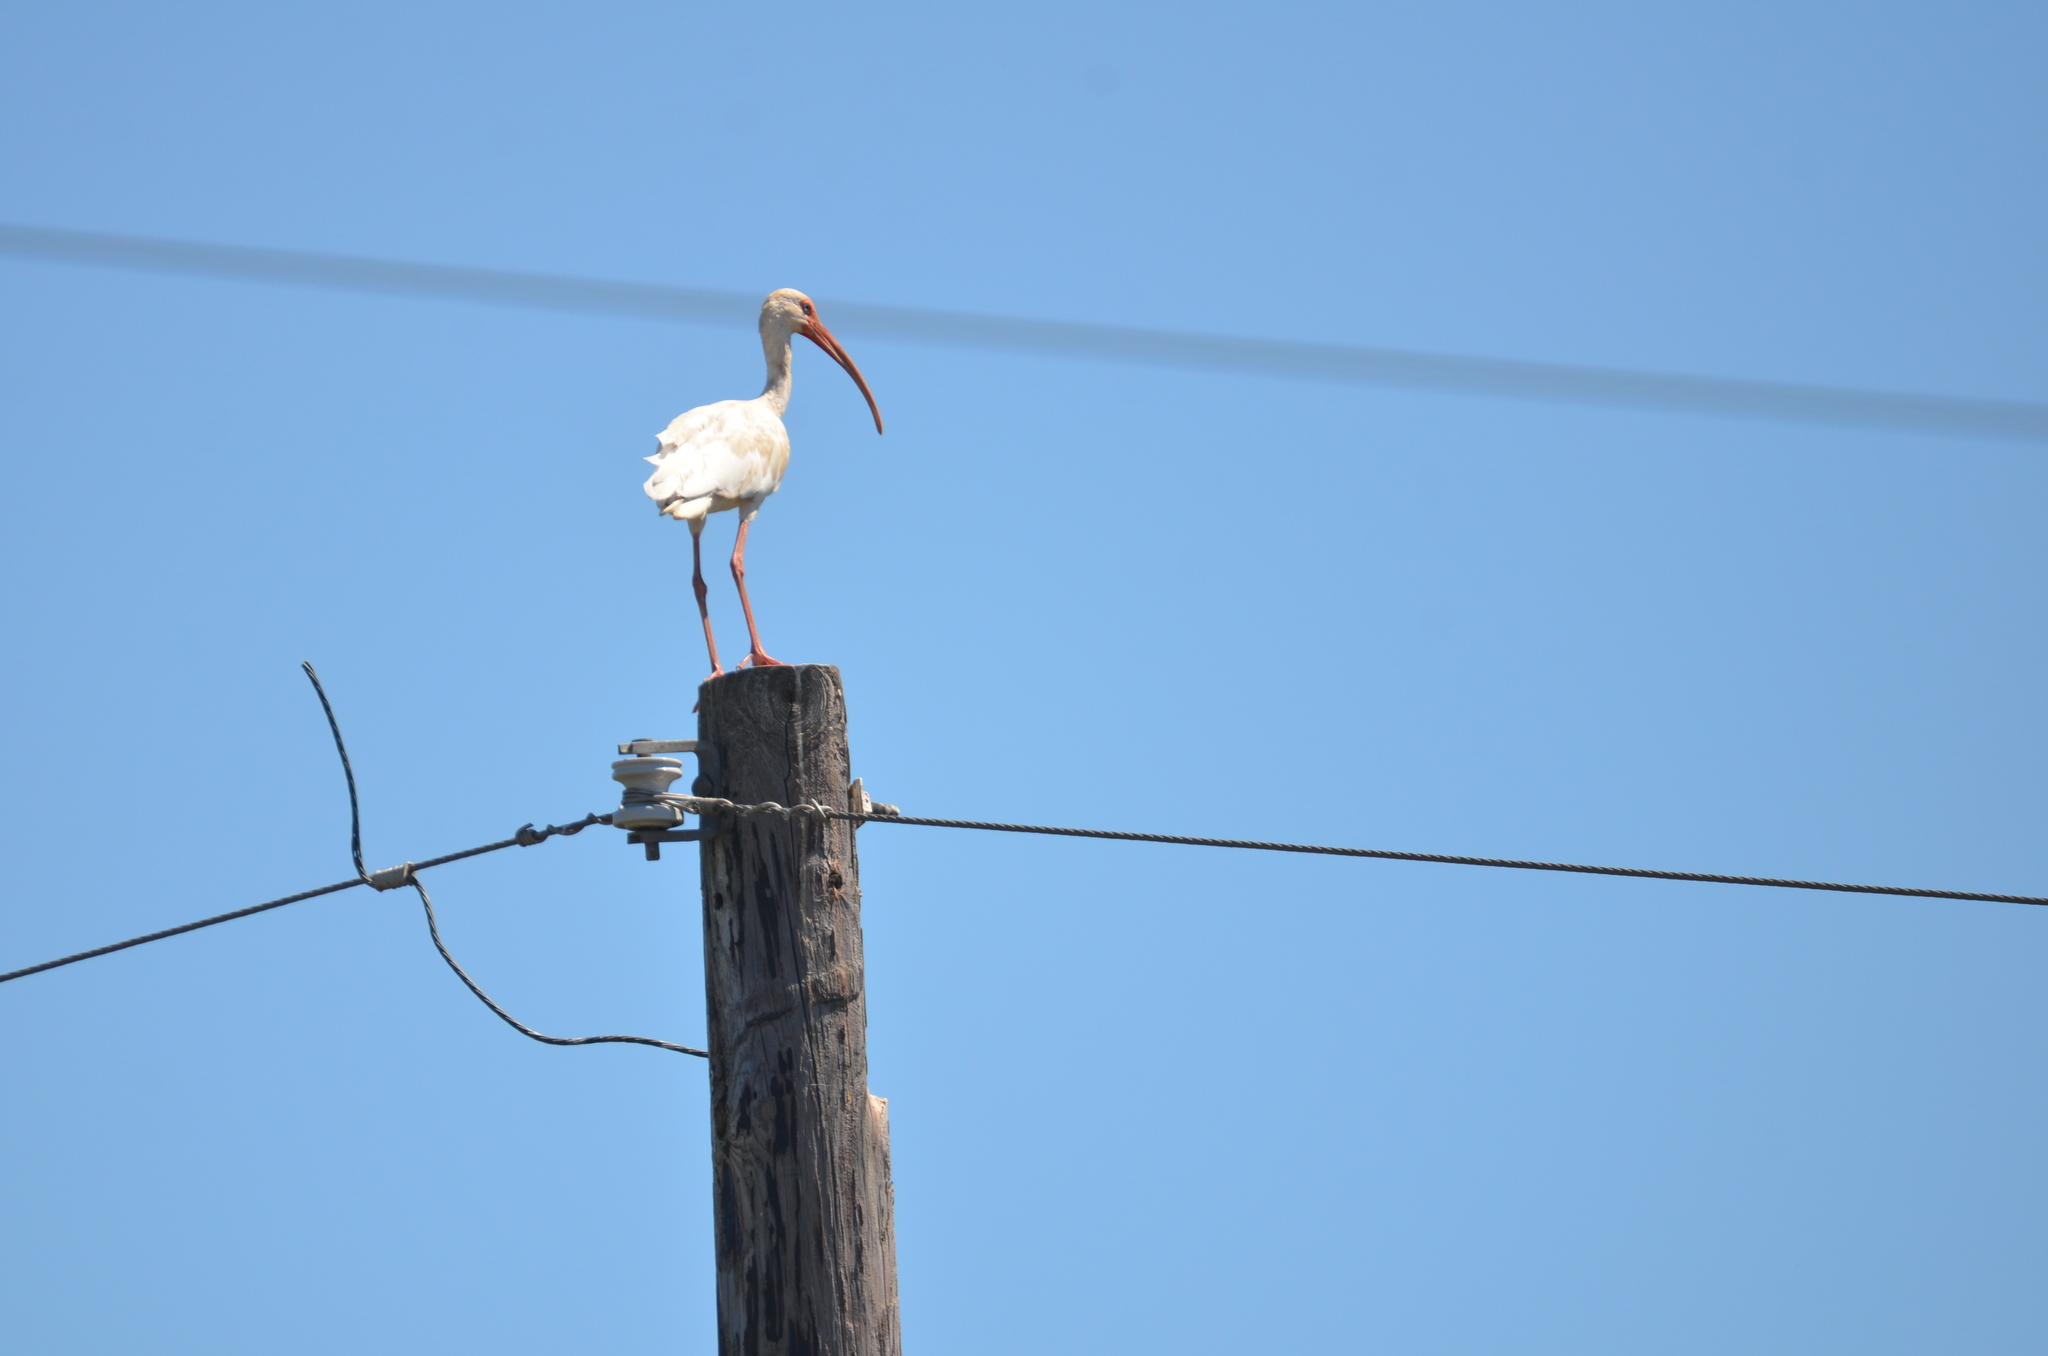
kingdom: Animalia
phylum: Chordata
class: Aves
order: Pelecaniformes
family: Threskiornithidae
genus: Eudocimus
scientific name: Eudocimus albus
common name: White ibis
